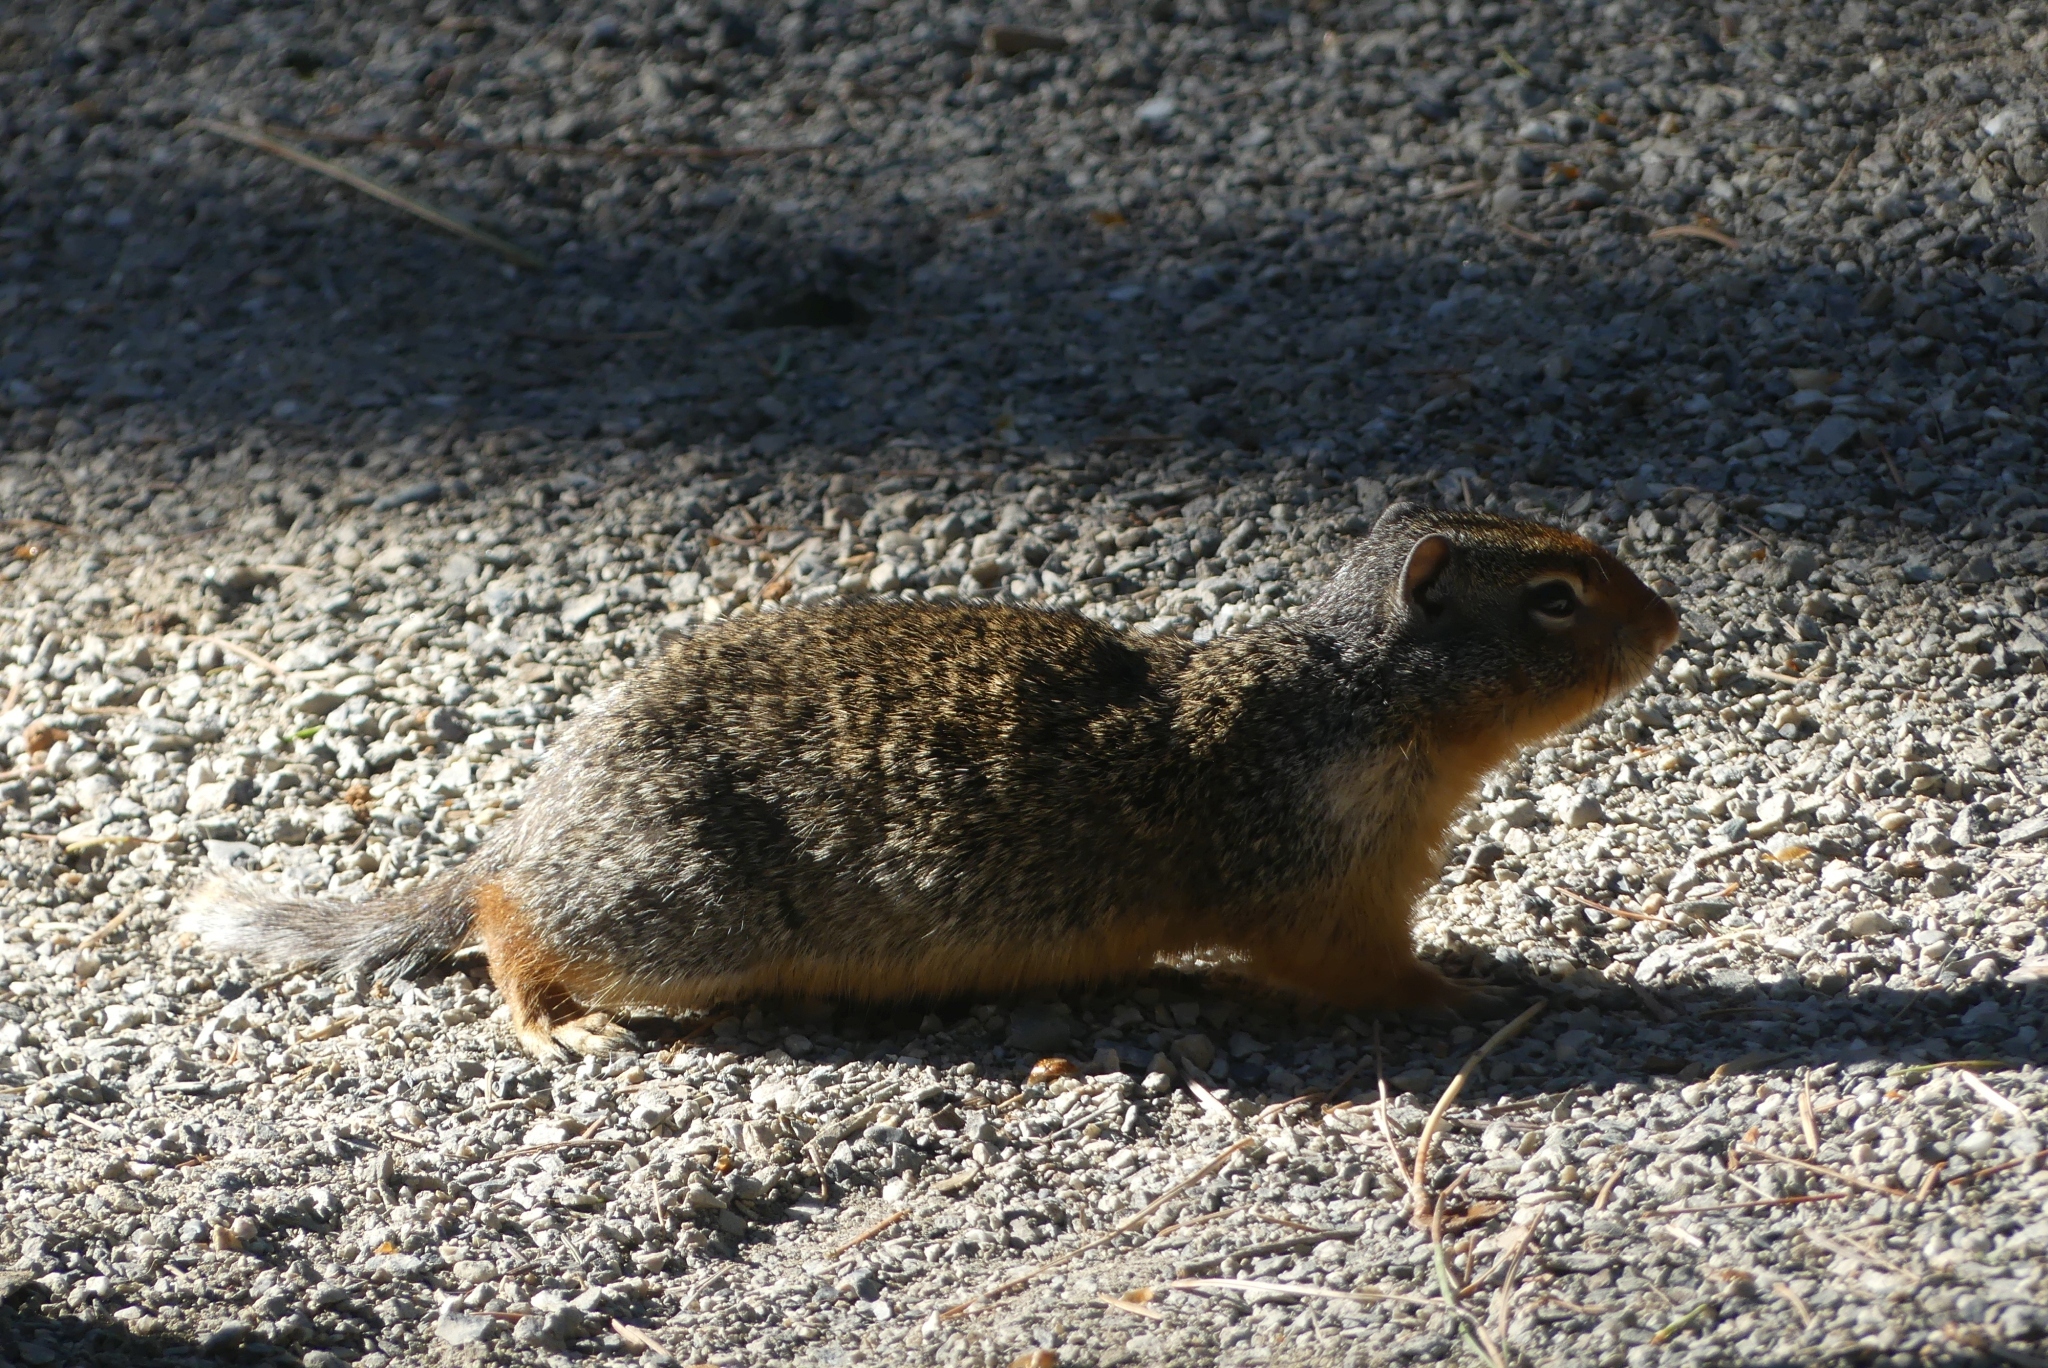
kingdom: Animalia
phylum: Chordata
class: Mammalia
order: Rodentia
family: Sciuridae
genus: Urocitellus
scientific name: Urocitellus columbianus
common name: Columbian ground squirrel
